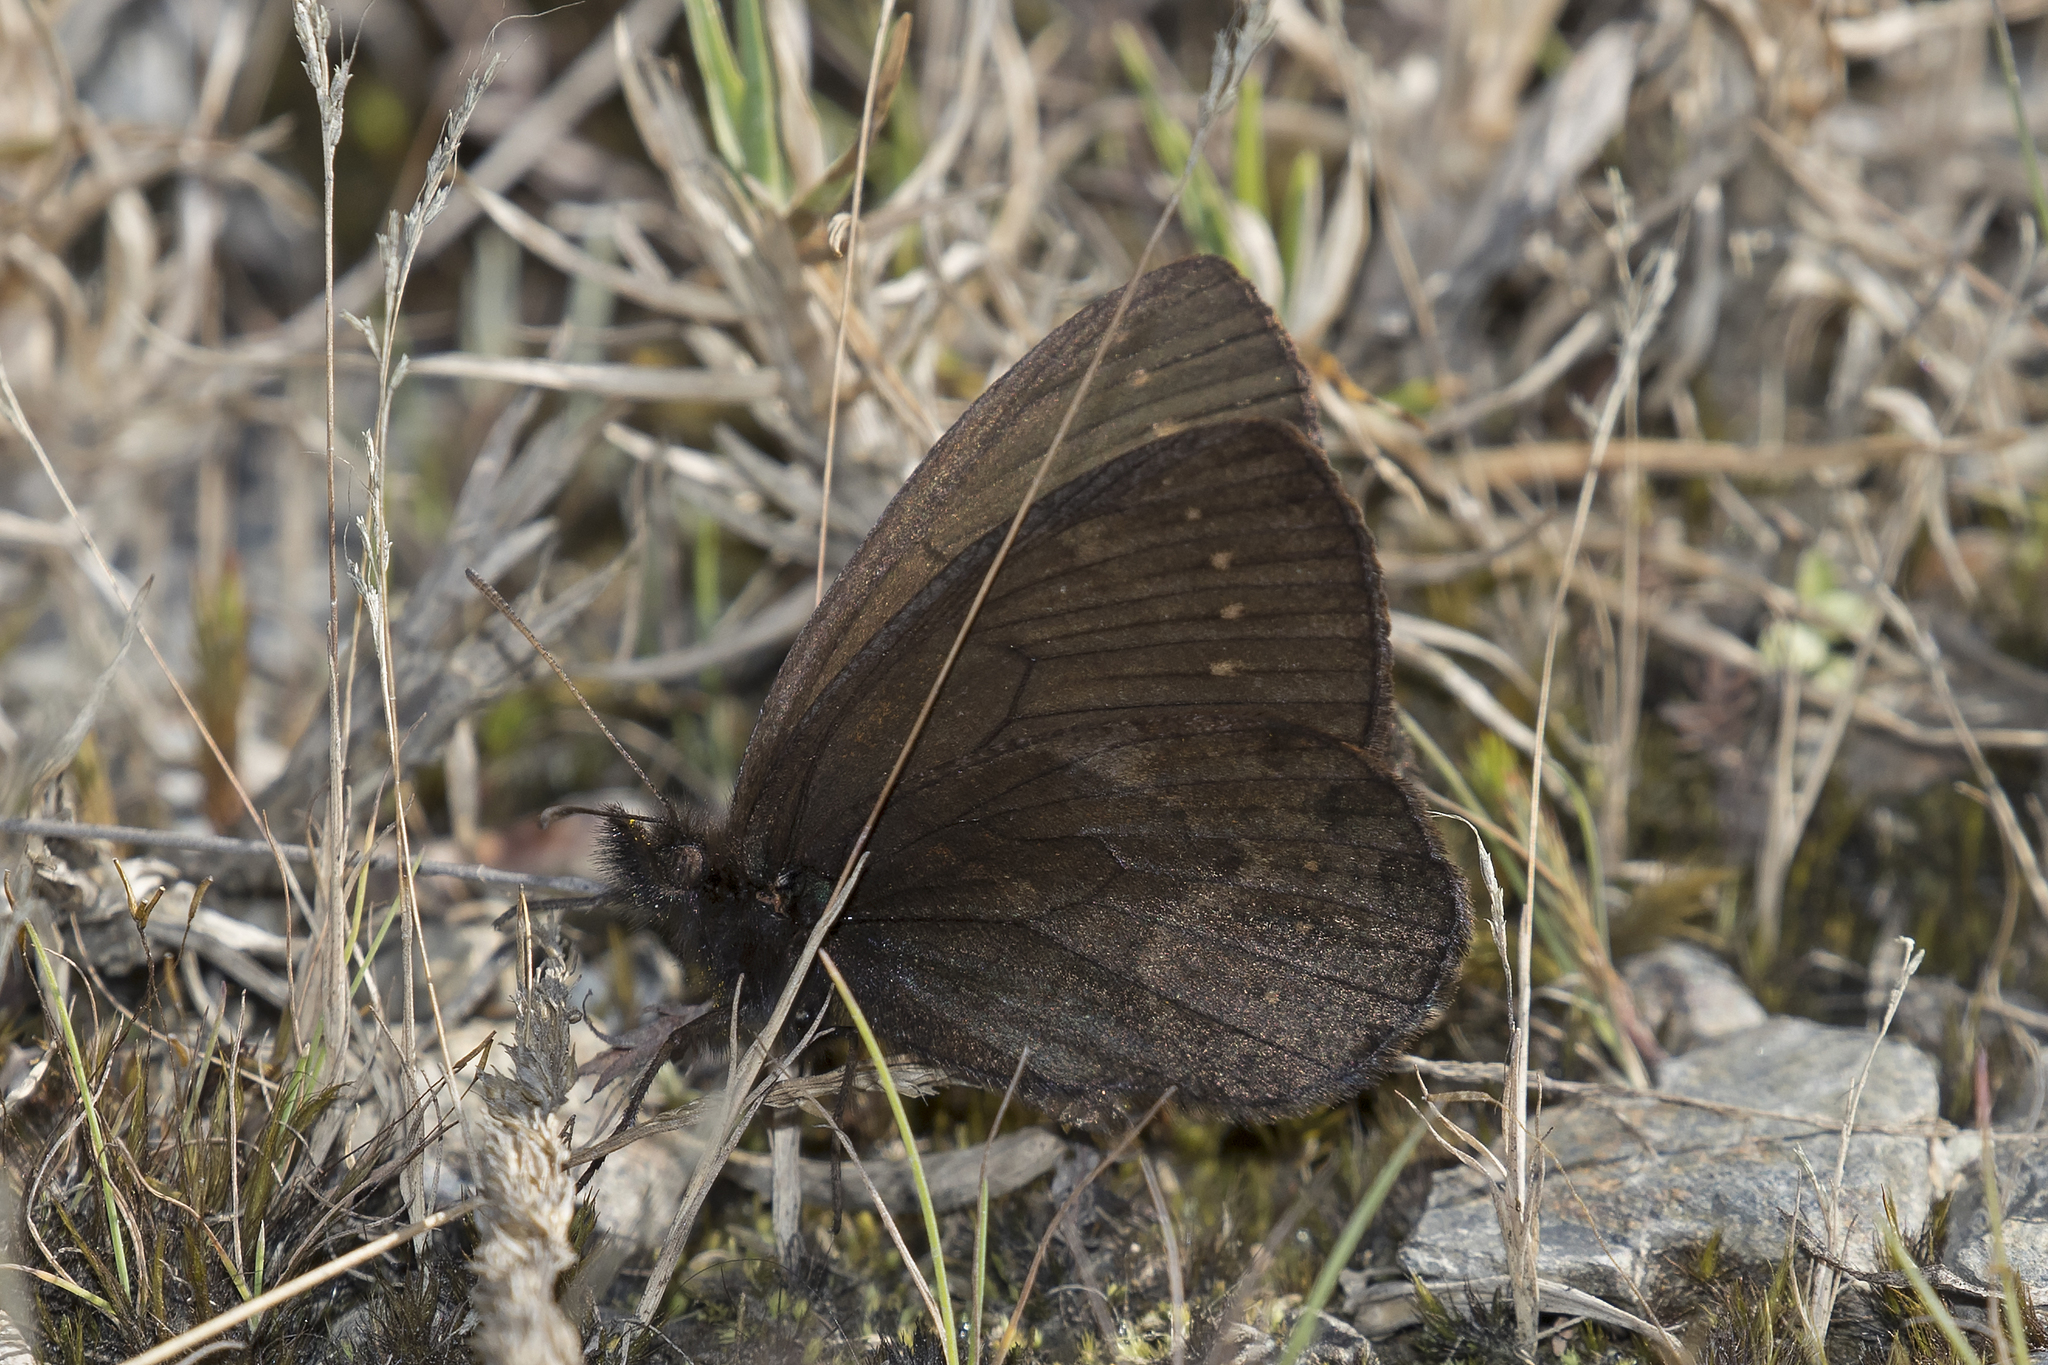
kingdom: Animalia
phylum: Arthropoda
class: Insecta
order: Lepidoptera
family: Nymphalidae
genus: Punapedaliodes
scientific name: Punapedaliodes flavopunctata
